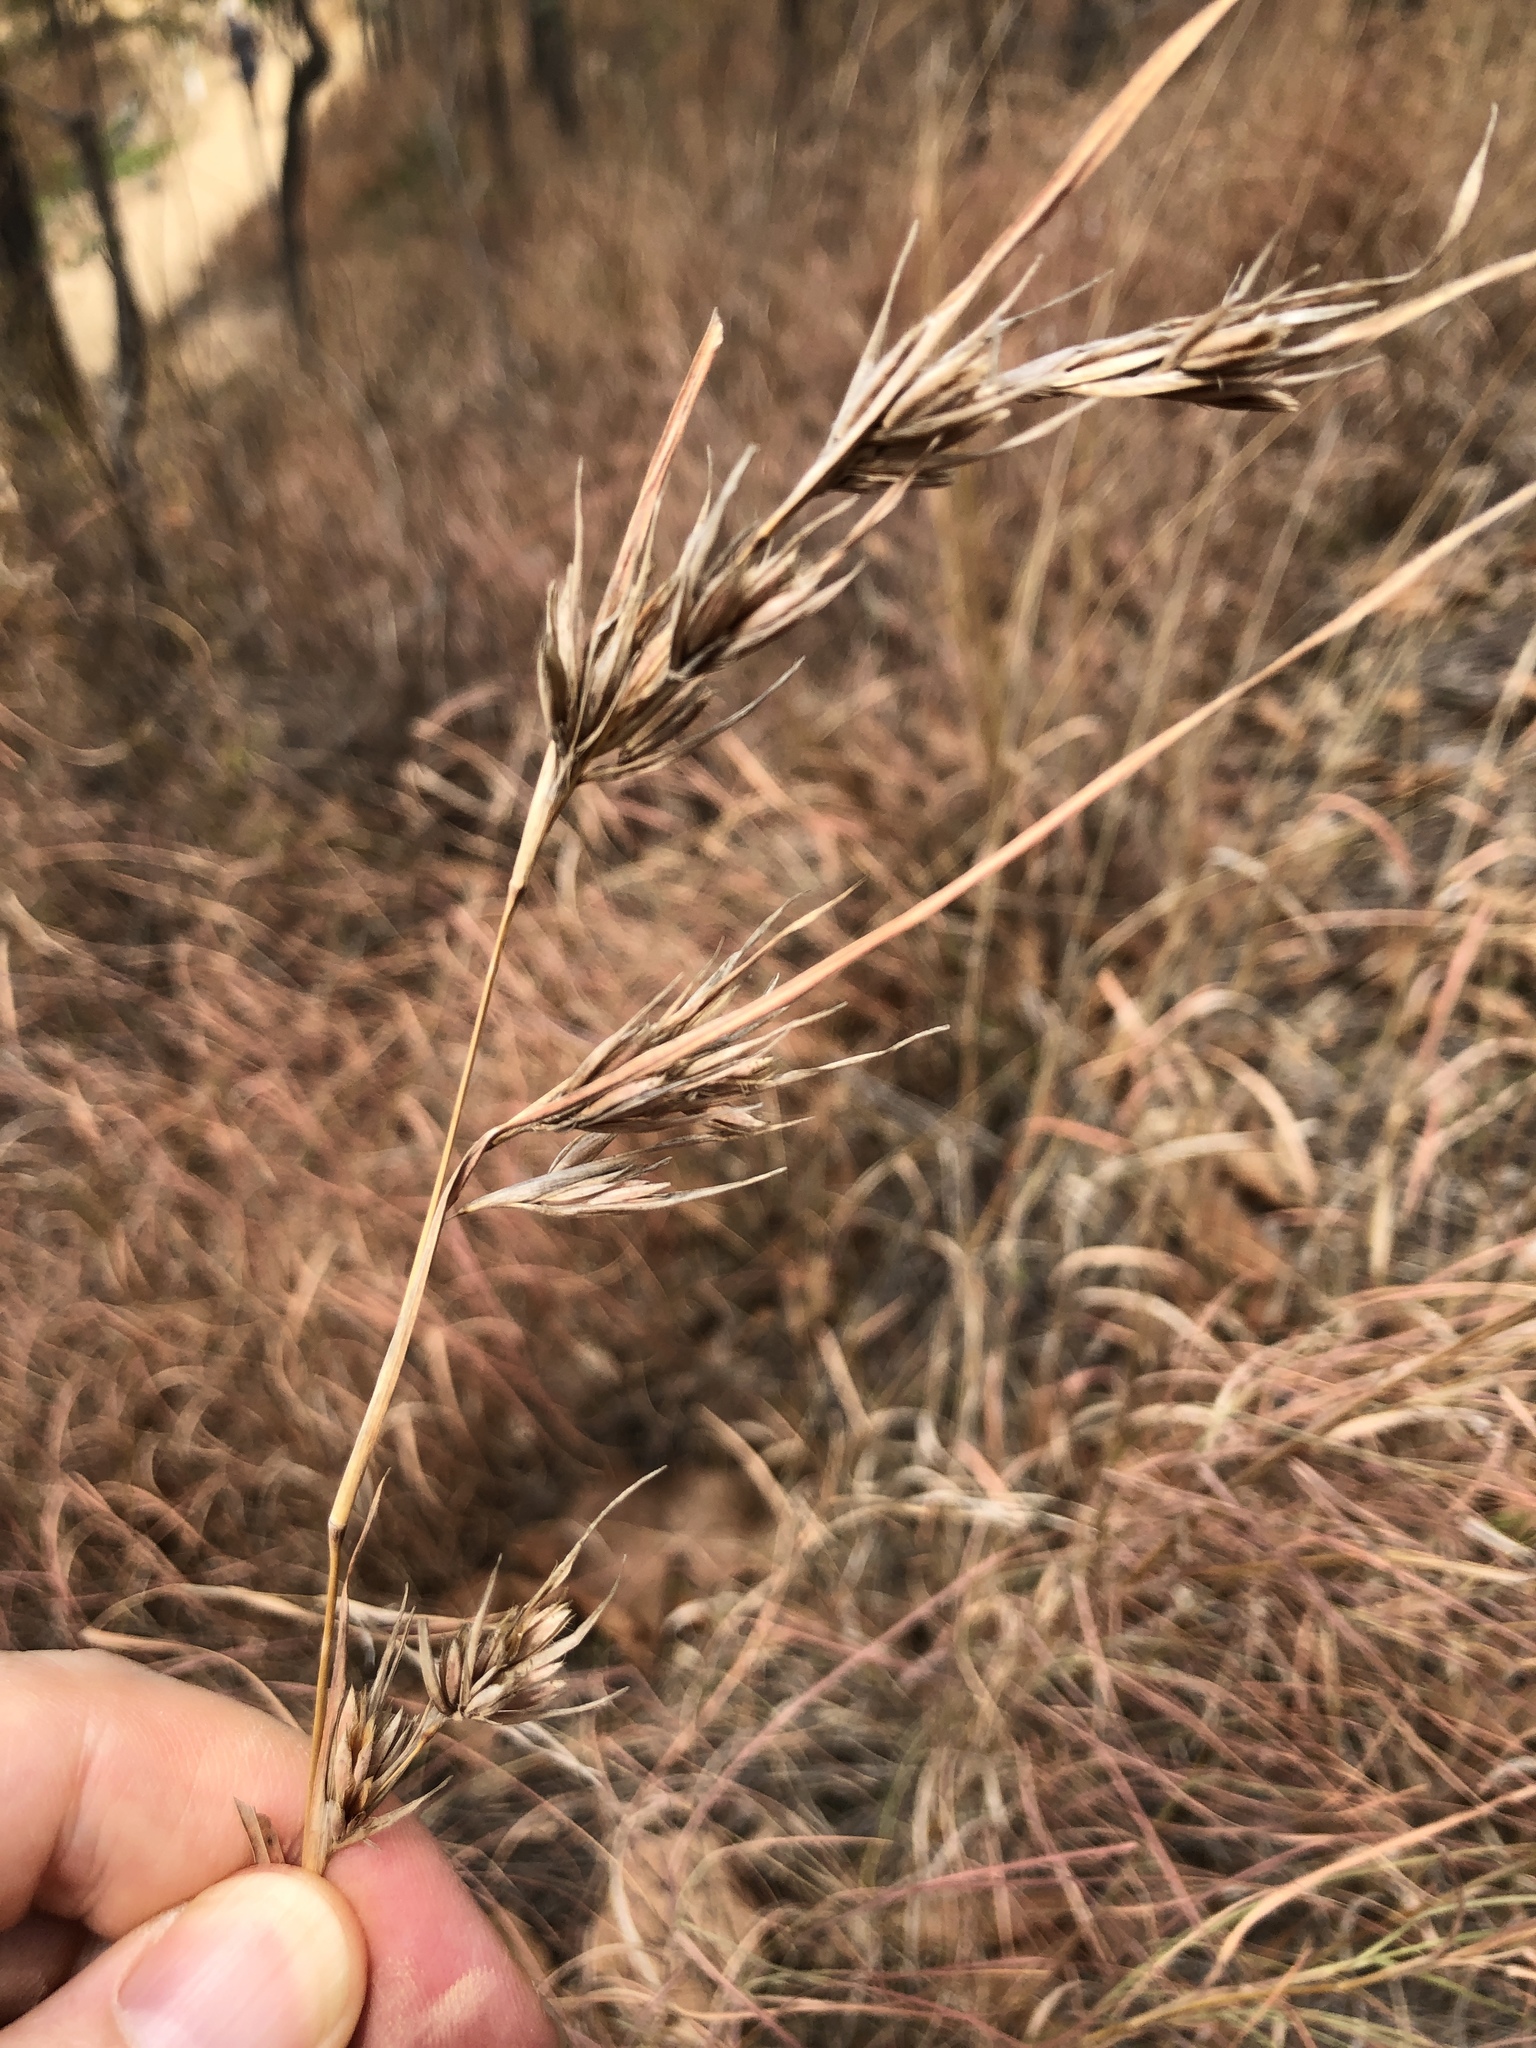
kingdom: Plantae
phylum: Tracheophyta
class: Liliopsida
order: Poales
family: Poaceae
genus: Themeda
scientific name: Themeda triandra
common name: Kangaroo grass
